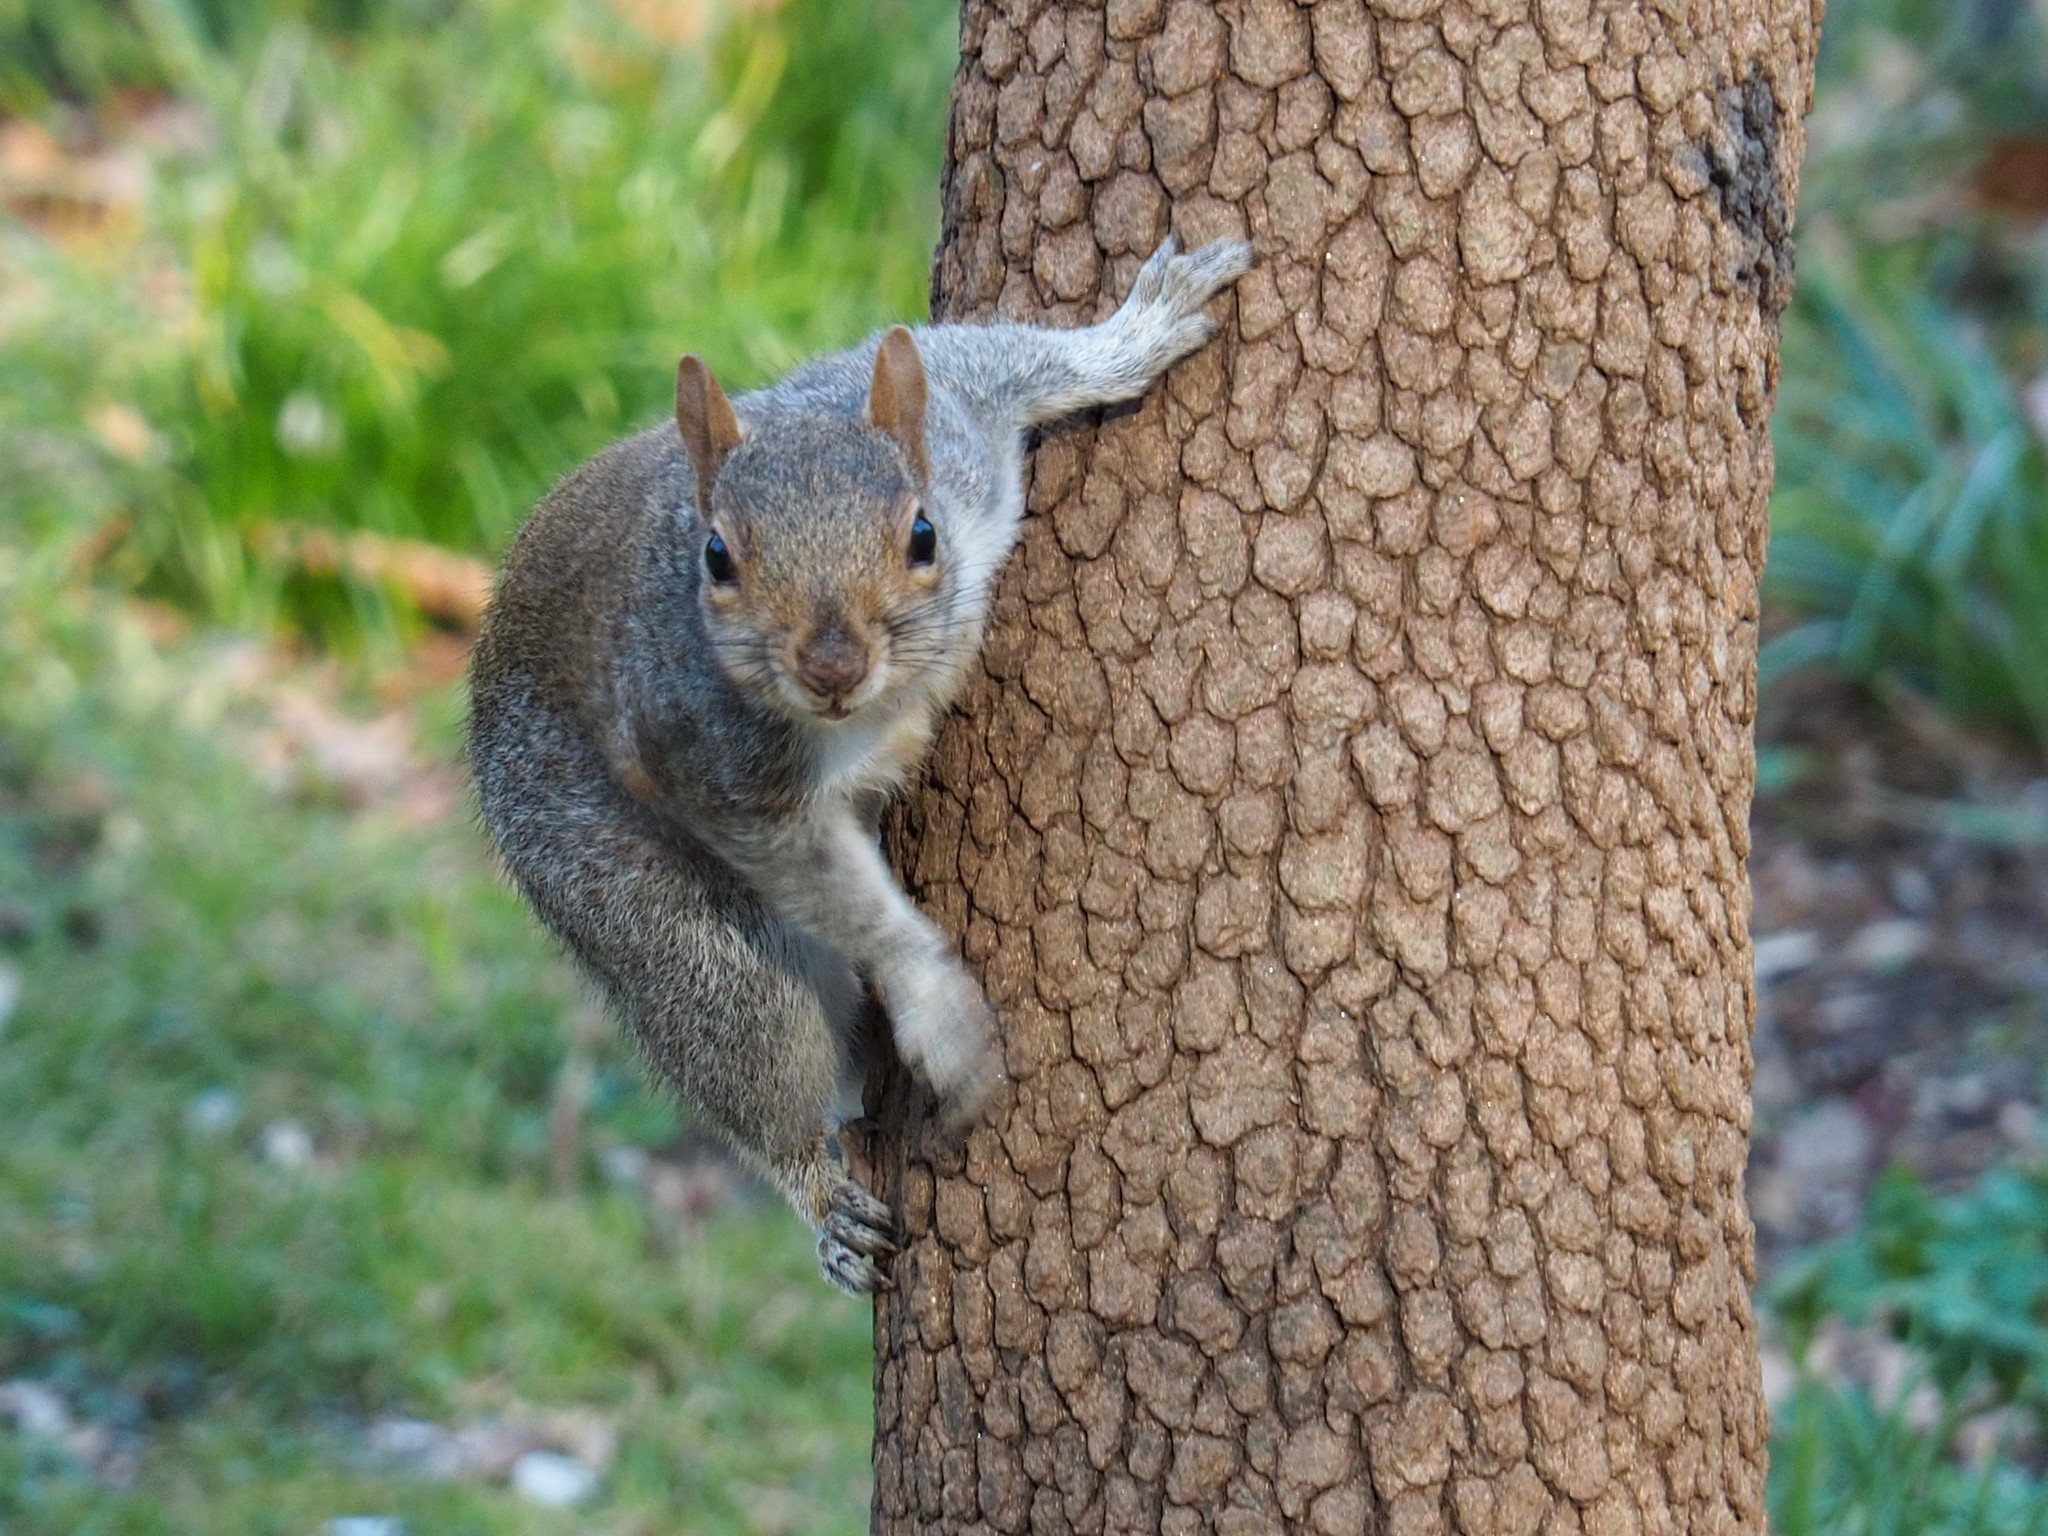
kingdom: Animalia
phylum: Chordata
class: Mammalia
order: Rodentia
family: Sciuridae
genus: Sciurus
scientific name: Sciurus carolinensis
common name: Eastern gray squirrel
